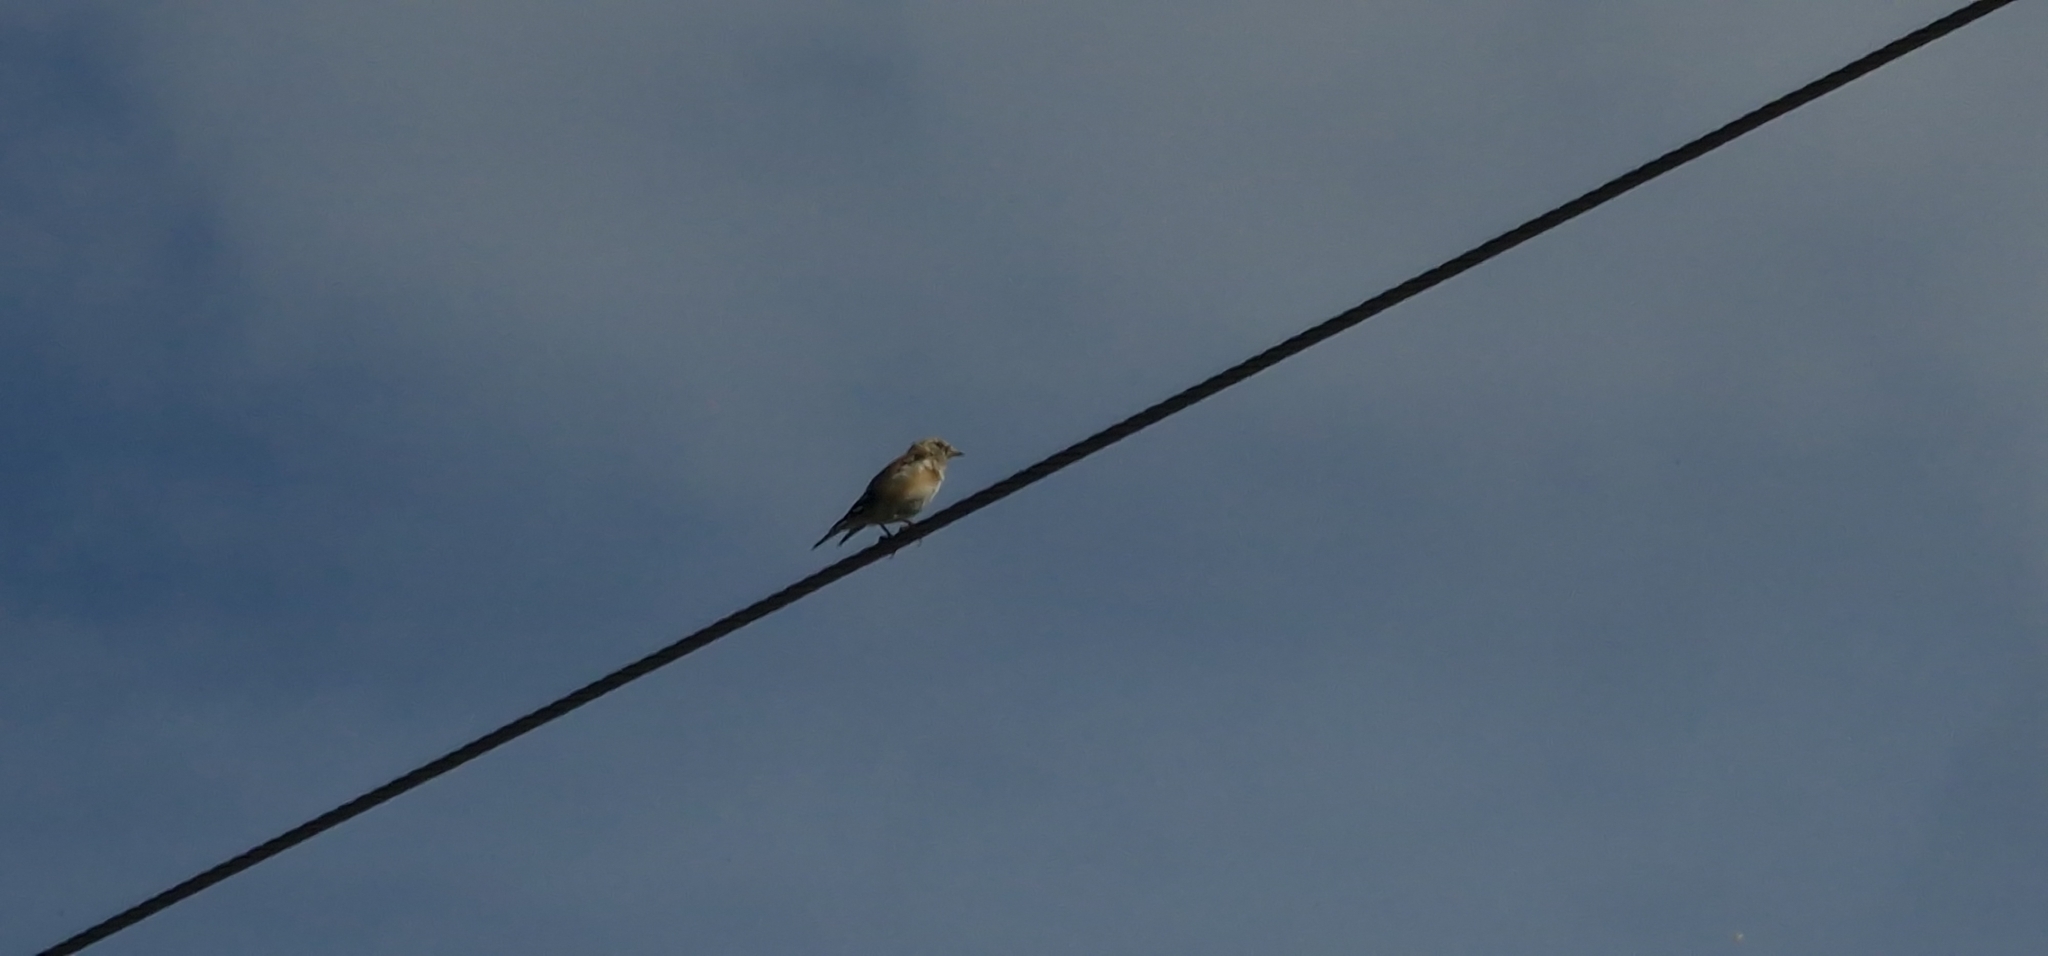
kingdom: Animalia
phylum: Chordata
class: Aves
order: Passeriformes
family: Fringillidae
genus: Linaria
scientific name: Linaria cannabina
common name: Common linnet
